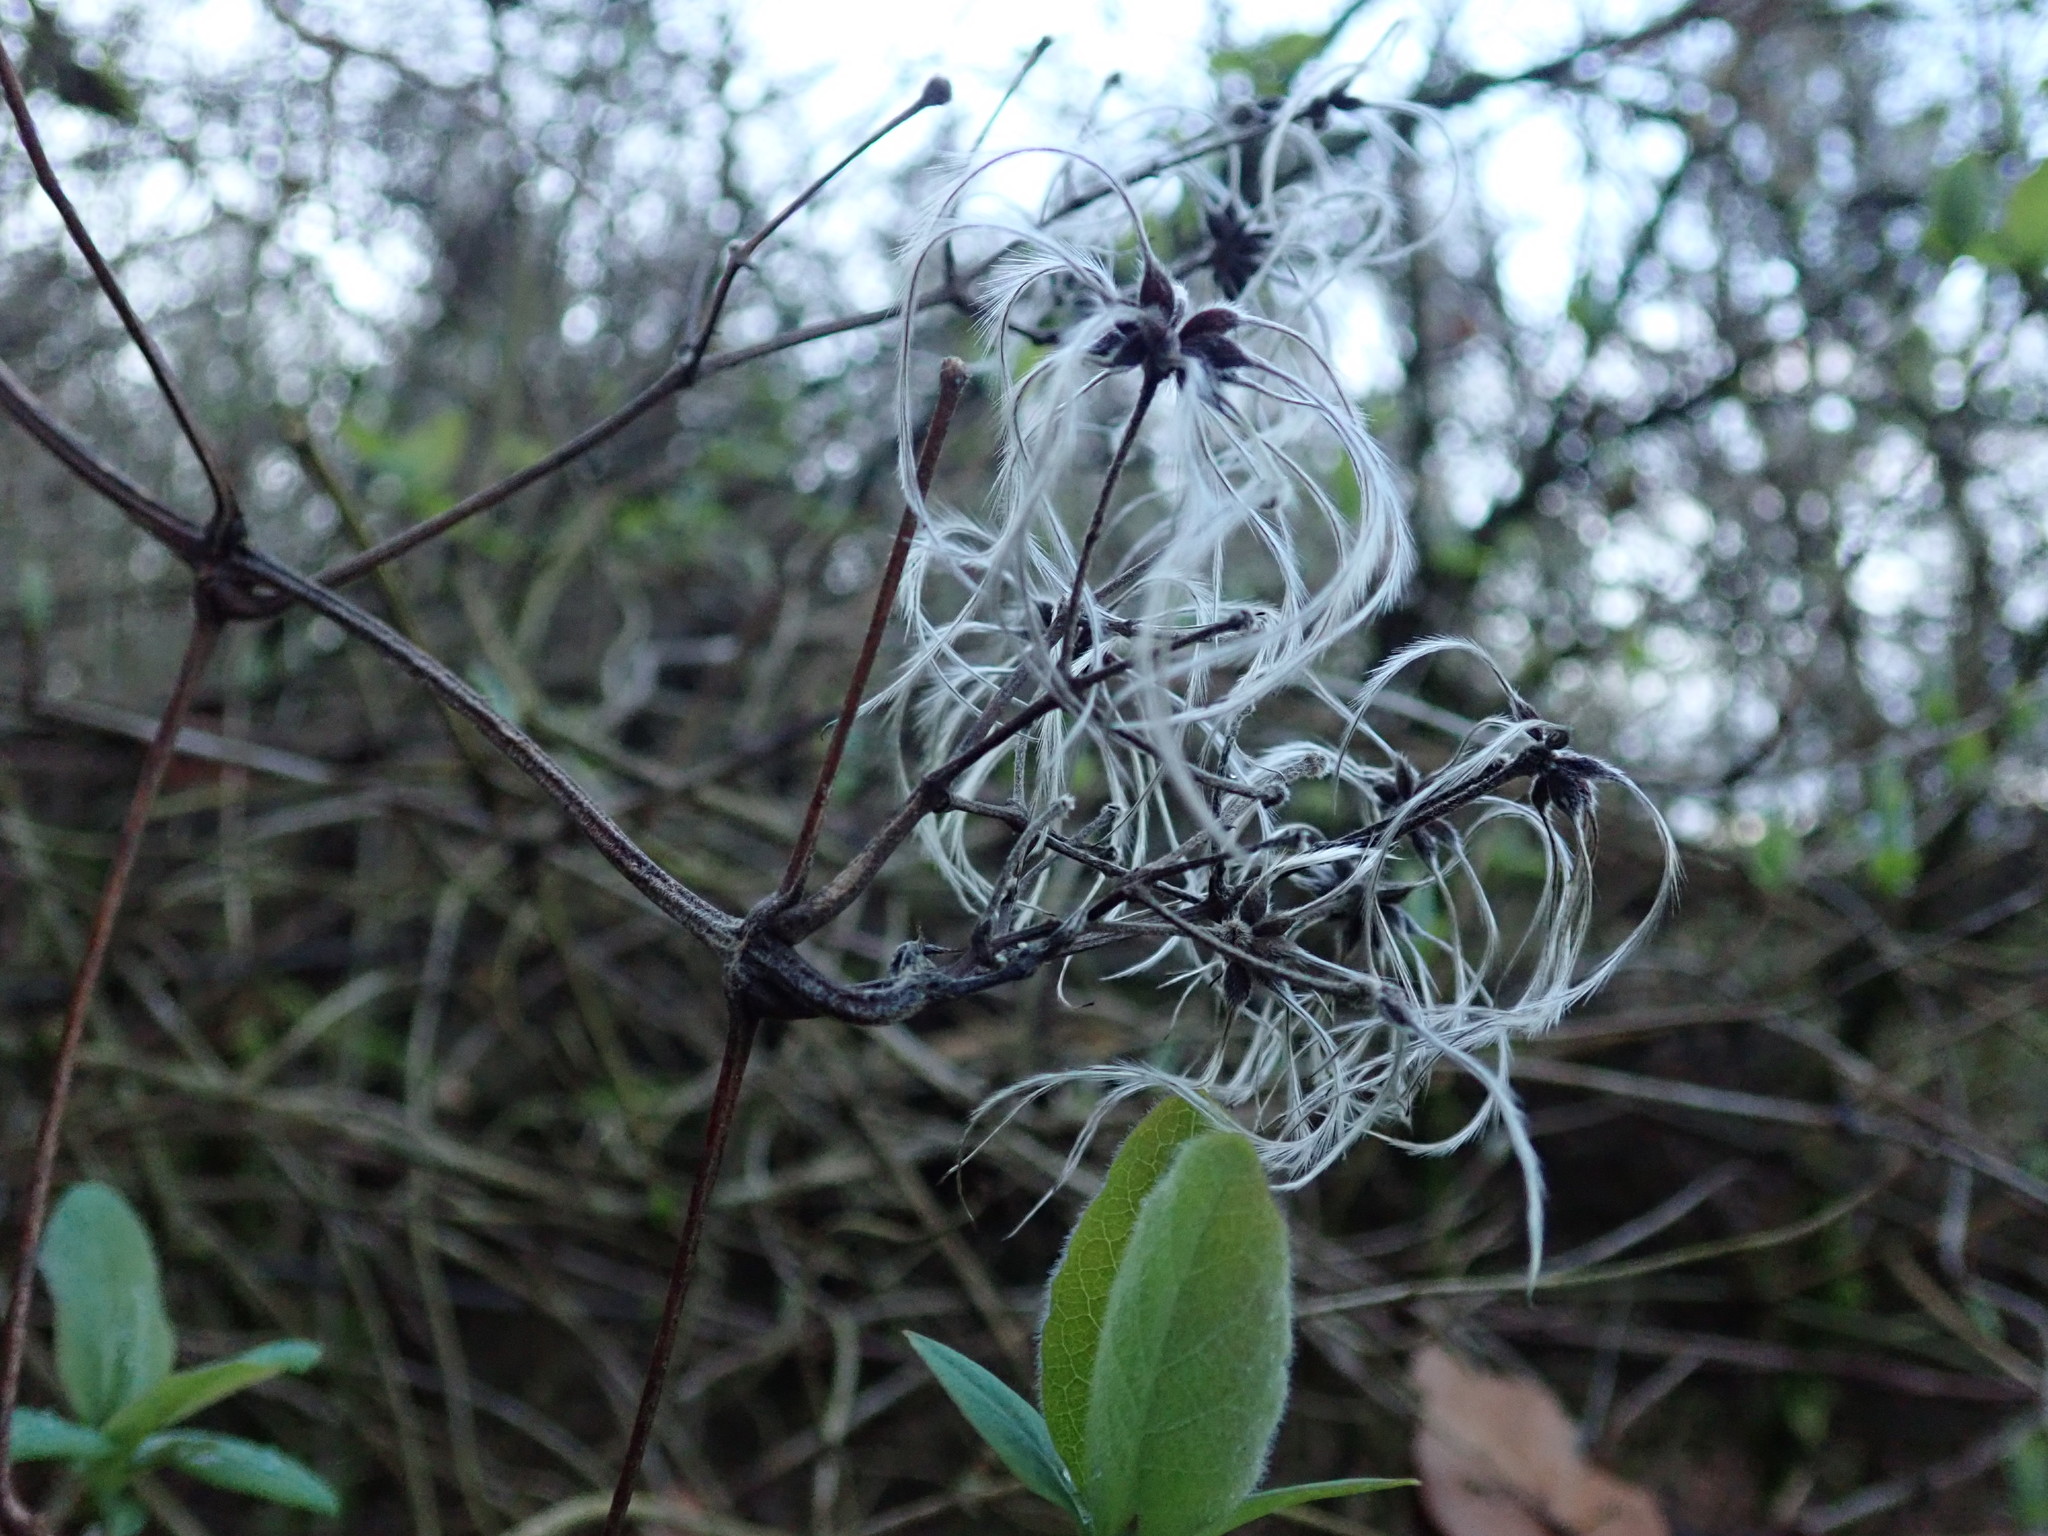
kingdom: Plantae
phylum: Tracheophyta
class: Magnoliopsida
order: Ranunculales
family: Ranunculaceae
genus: Clematis
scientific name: Clematis vitalba
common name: Evergreen clematis
